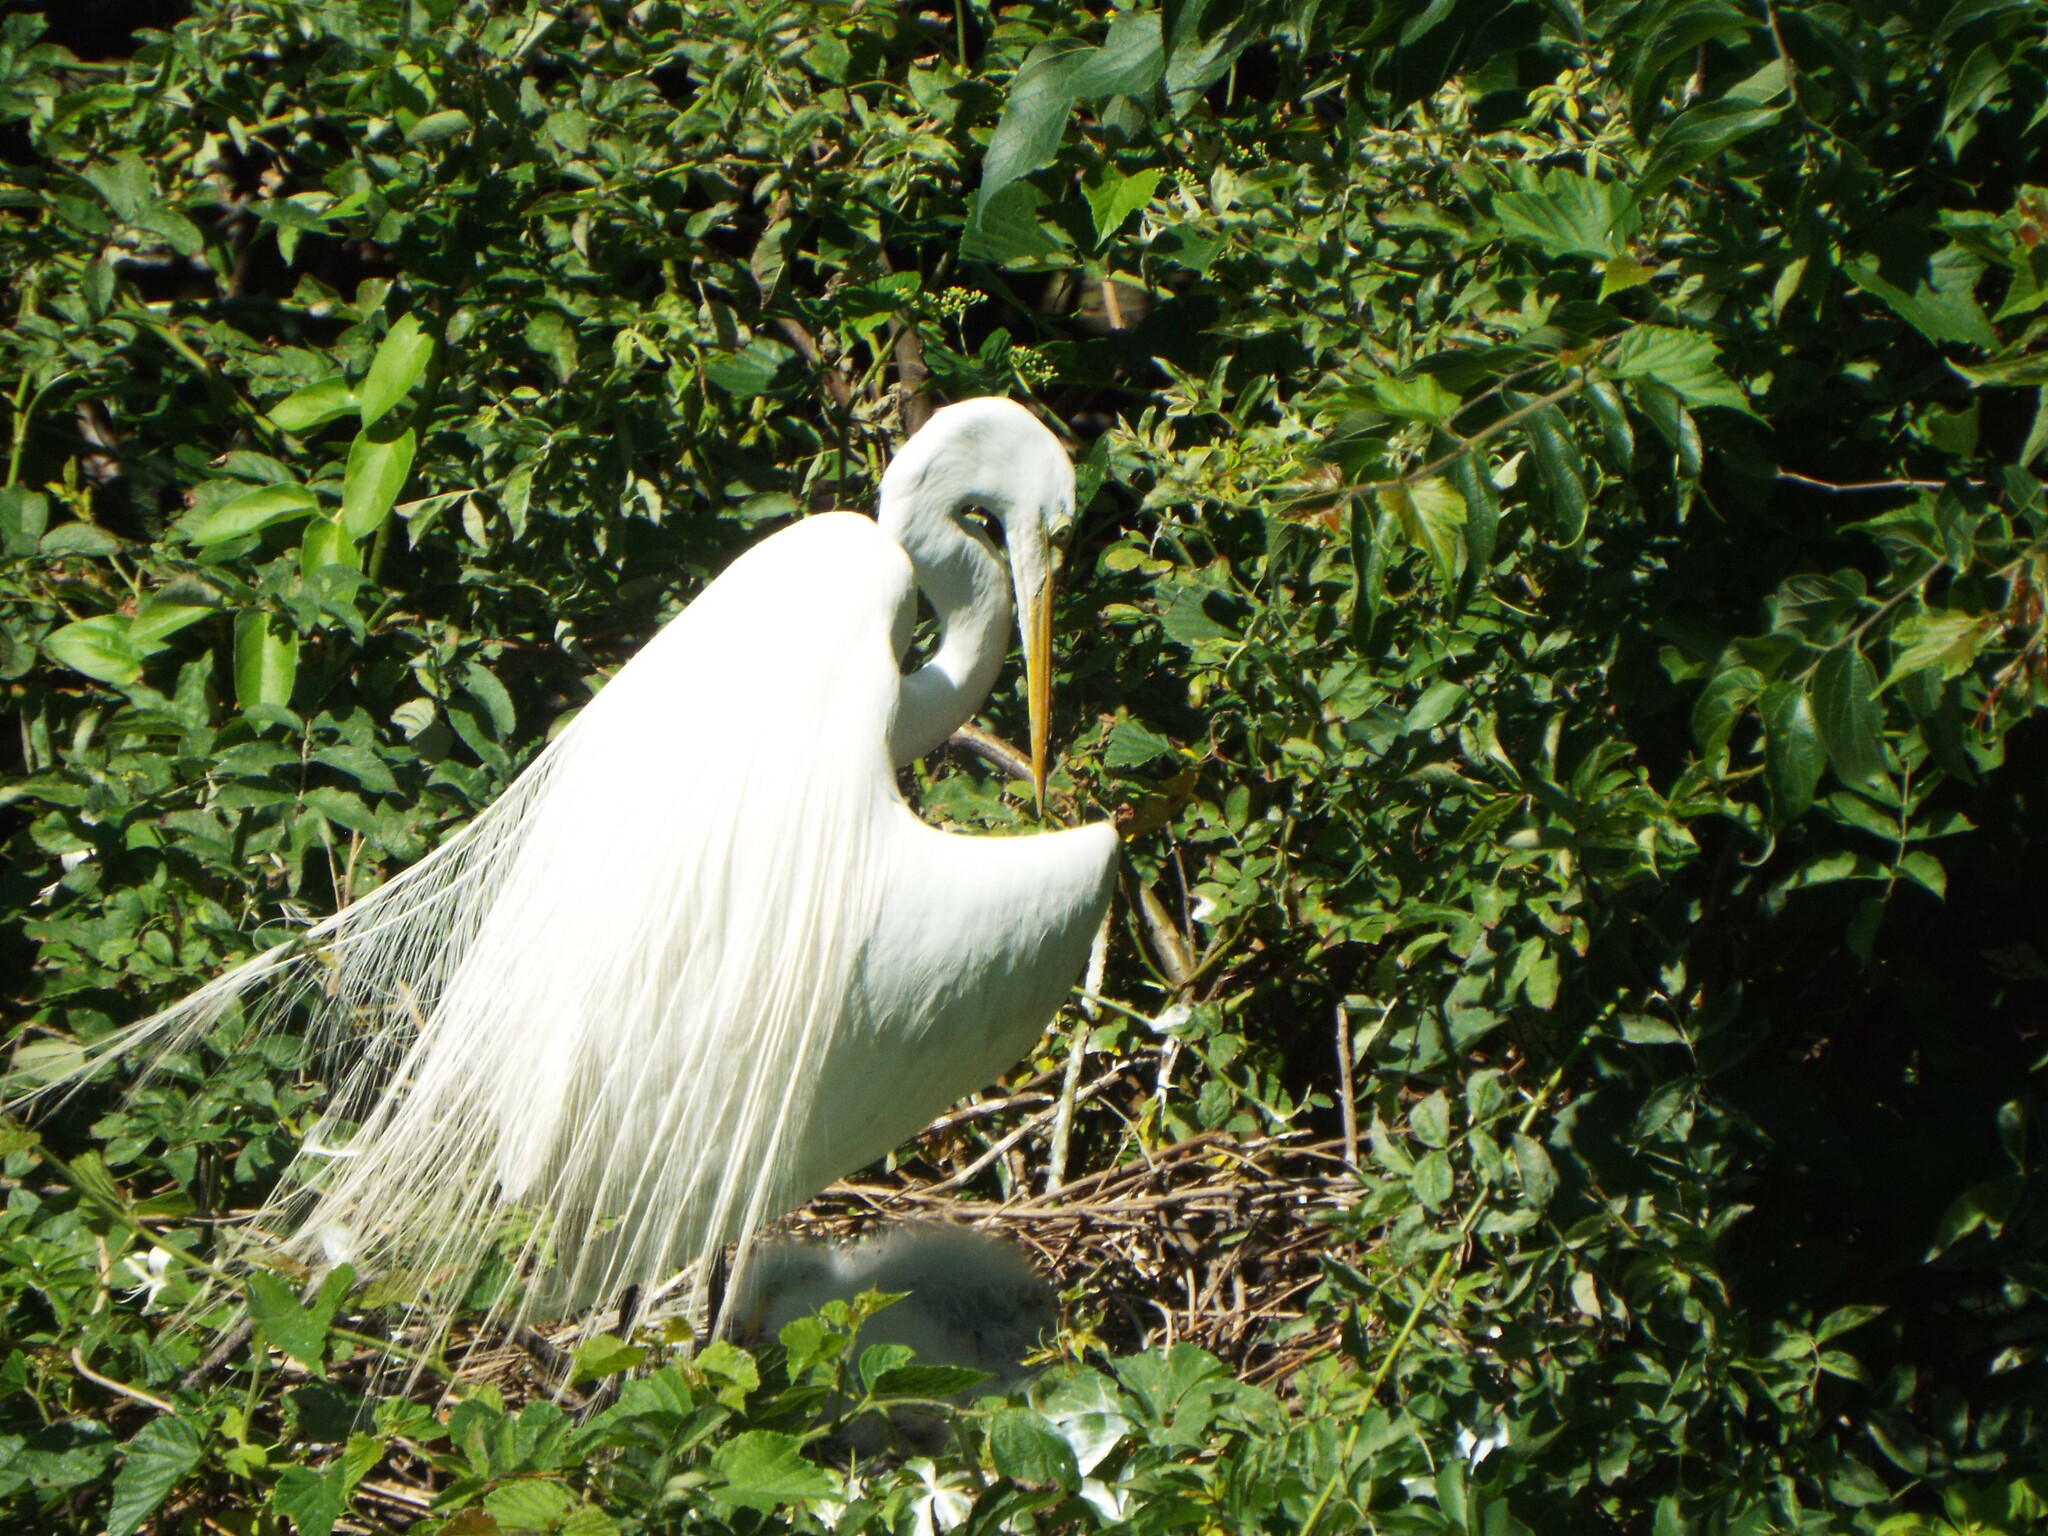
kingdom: Animalia
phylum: Chordata
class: Aves
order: Pelecaniformes
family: Ardeidae
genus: Ardea
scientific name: Ardea alba
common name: Great egret
